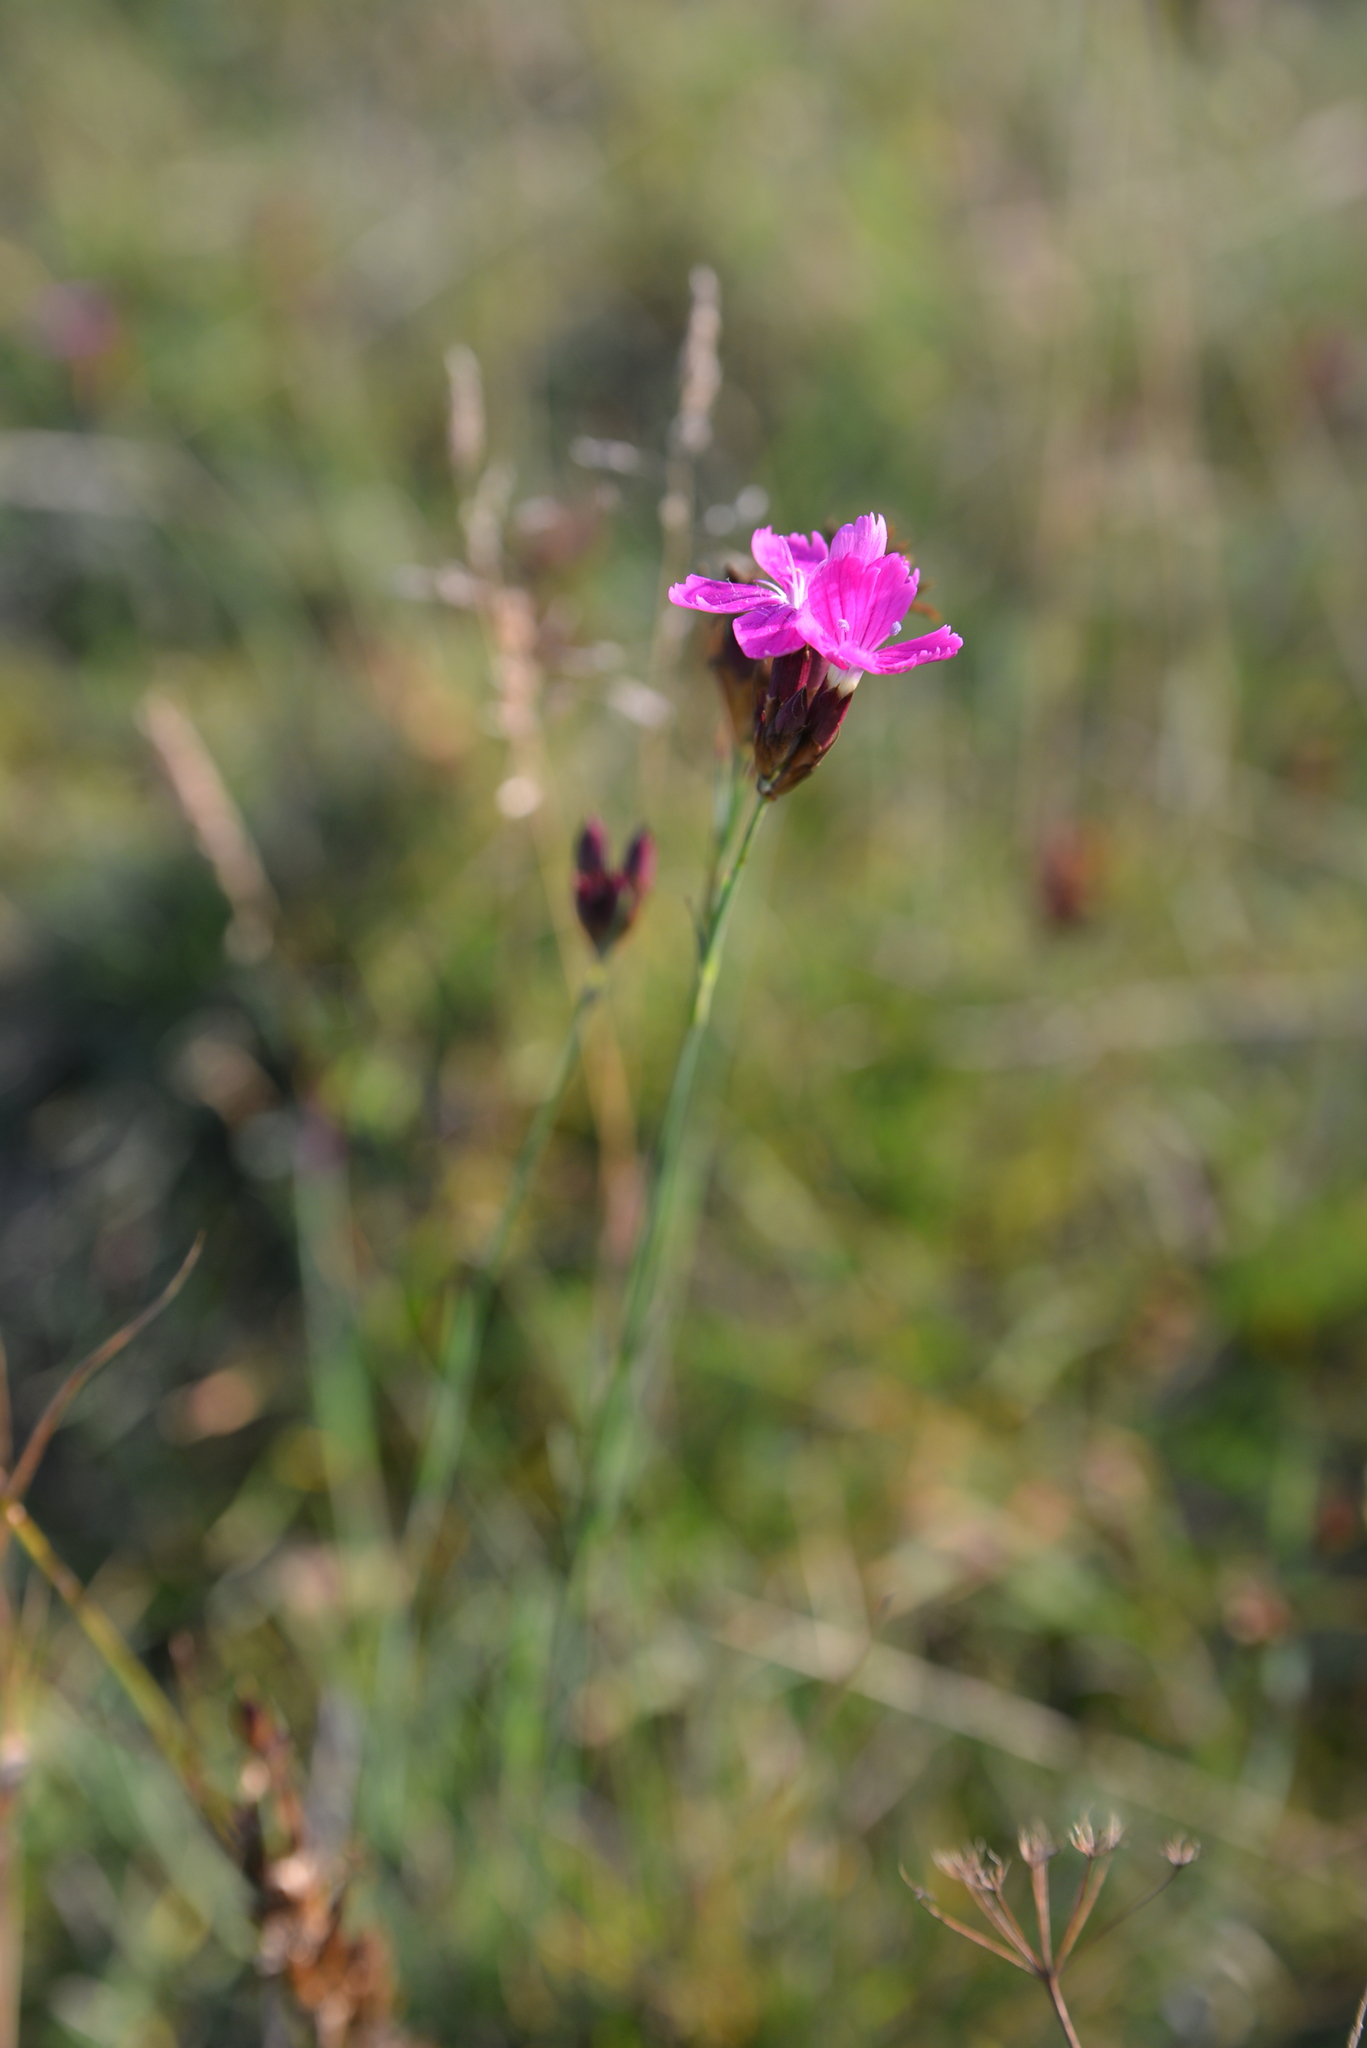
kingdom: Plantae
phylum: Tracheophyta
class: Magnoliopsida
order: Caryophyllales
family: Caryophyllaceae
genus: Dianthus
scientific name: Dianthus carthusianorum
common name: Carthusian pink
